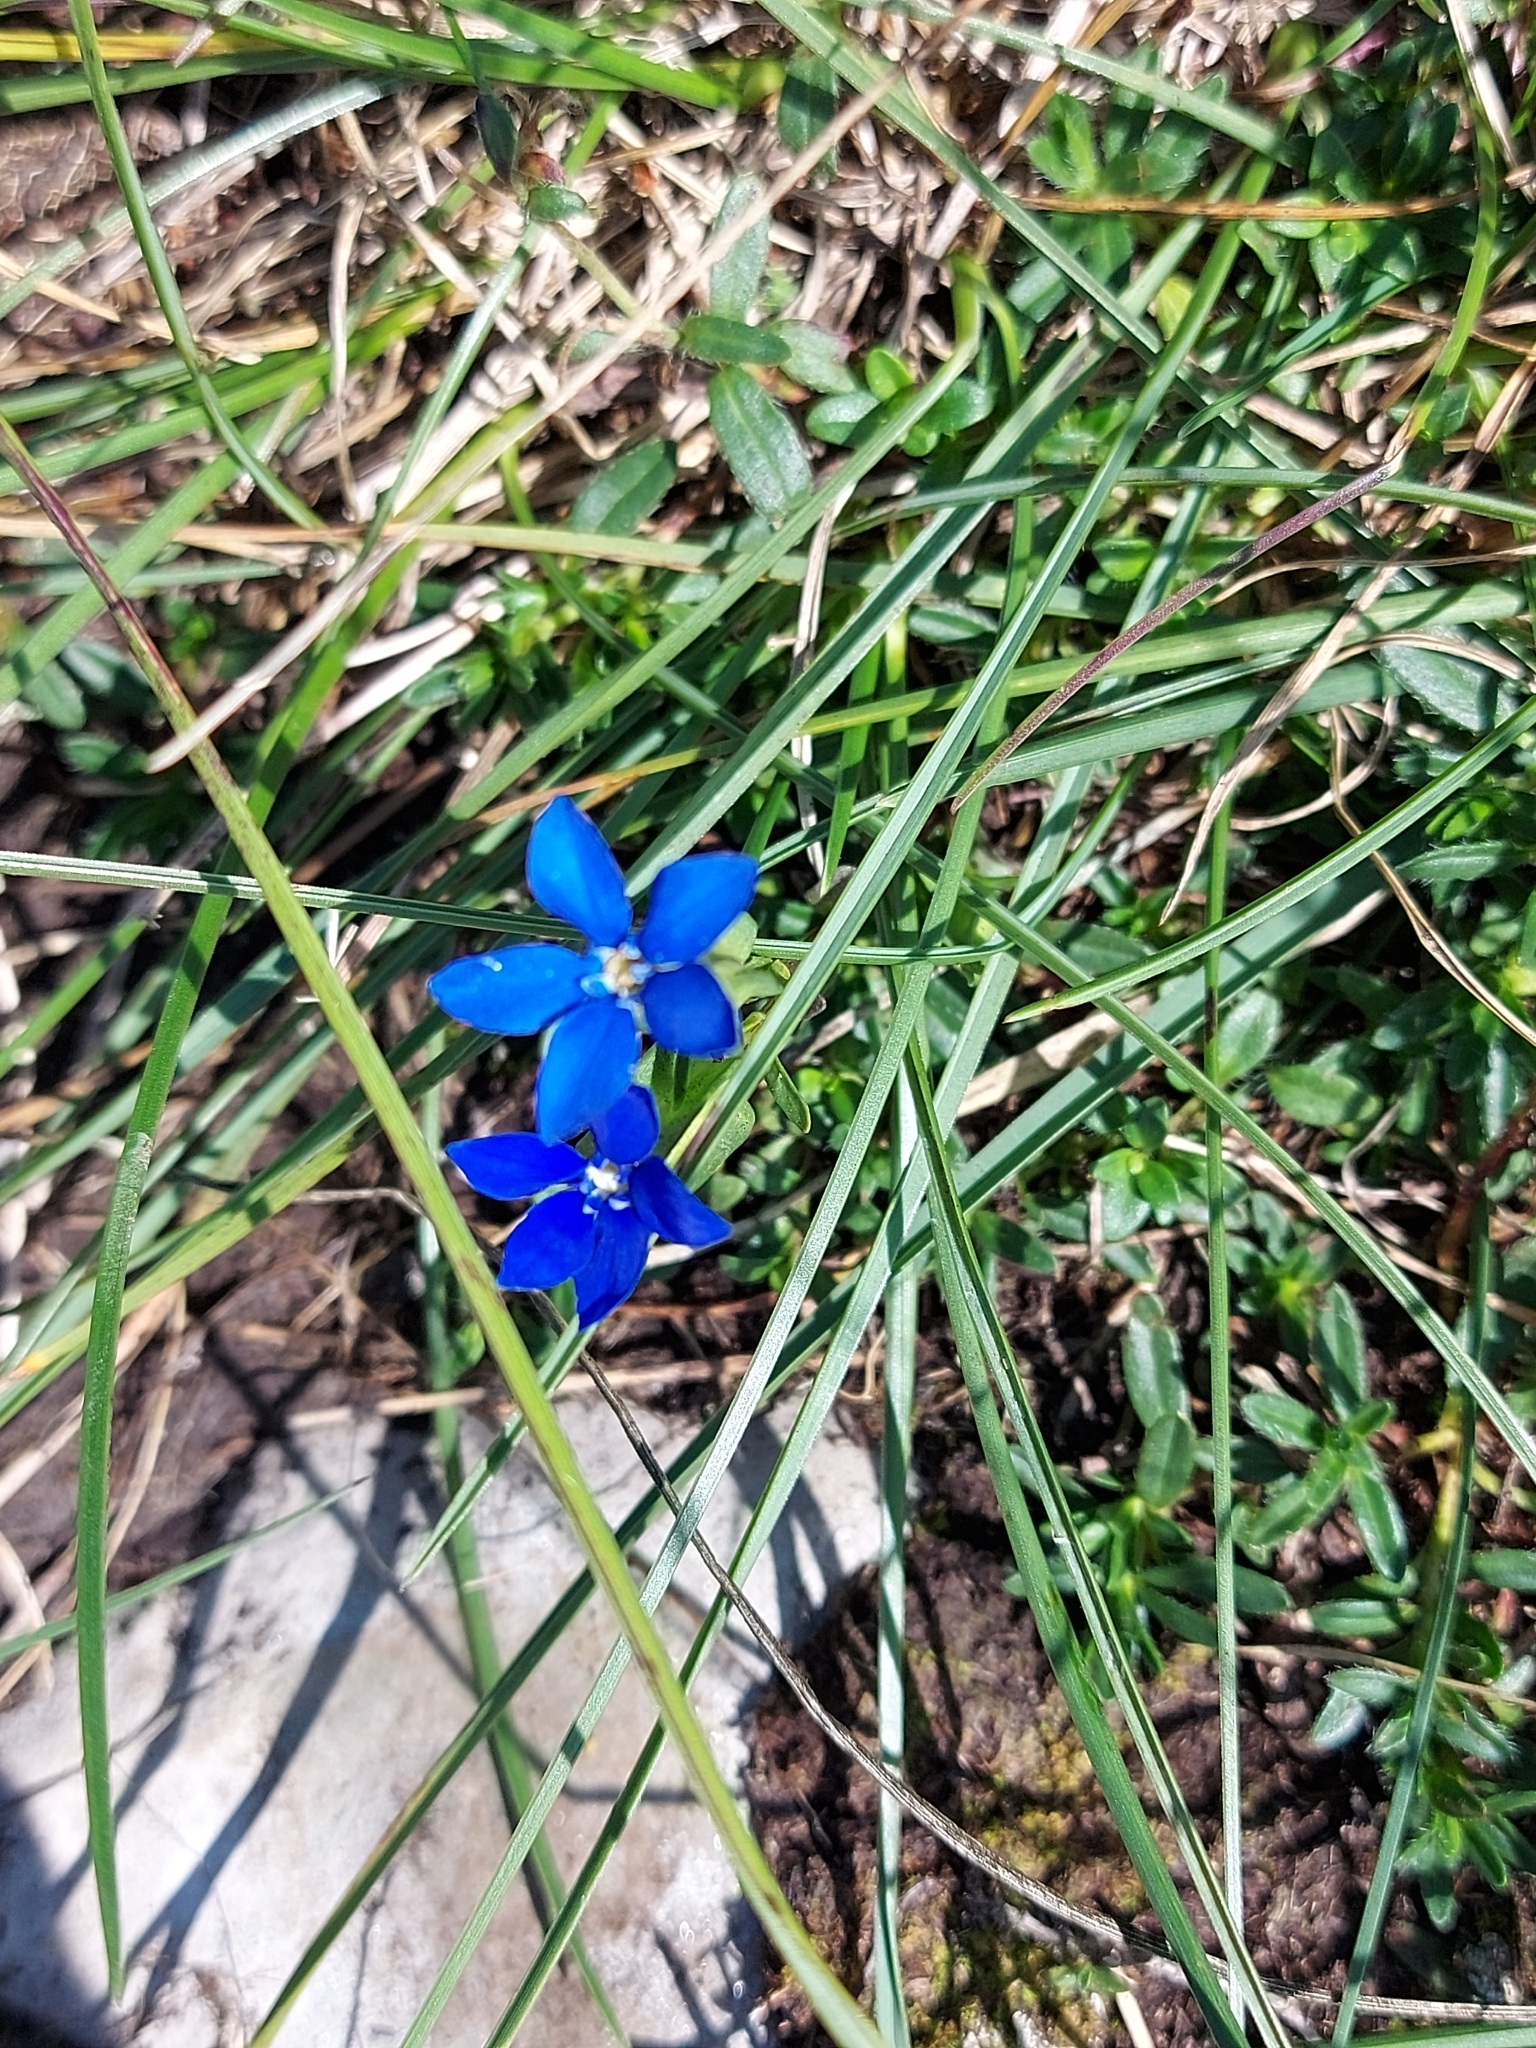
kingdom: Plantae
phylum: Tracheophyta
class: Magnoliopsida
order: Gentianales
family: Gentianaceae
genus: Gentiana
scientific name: Gentiana utriculosa
